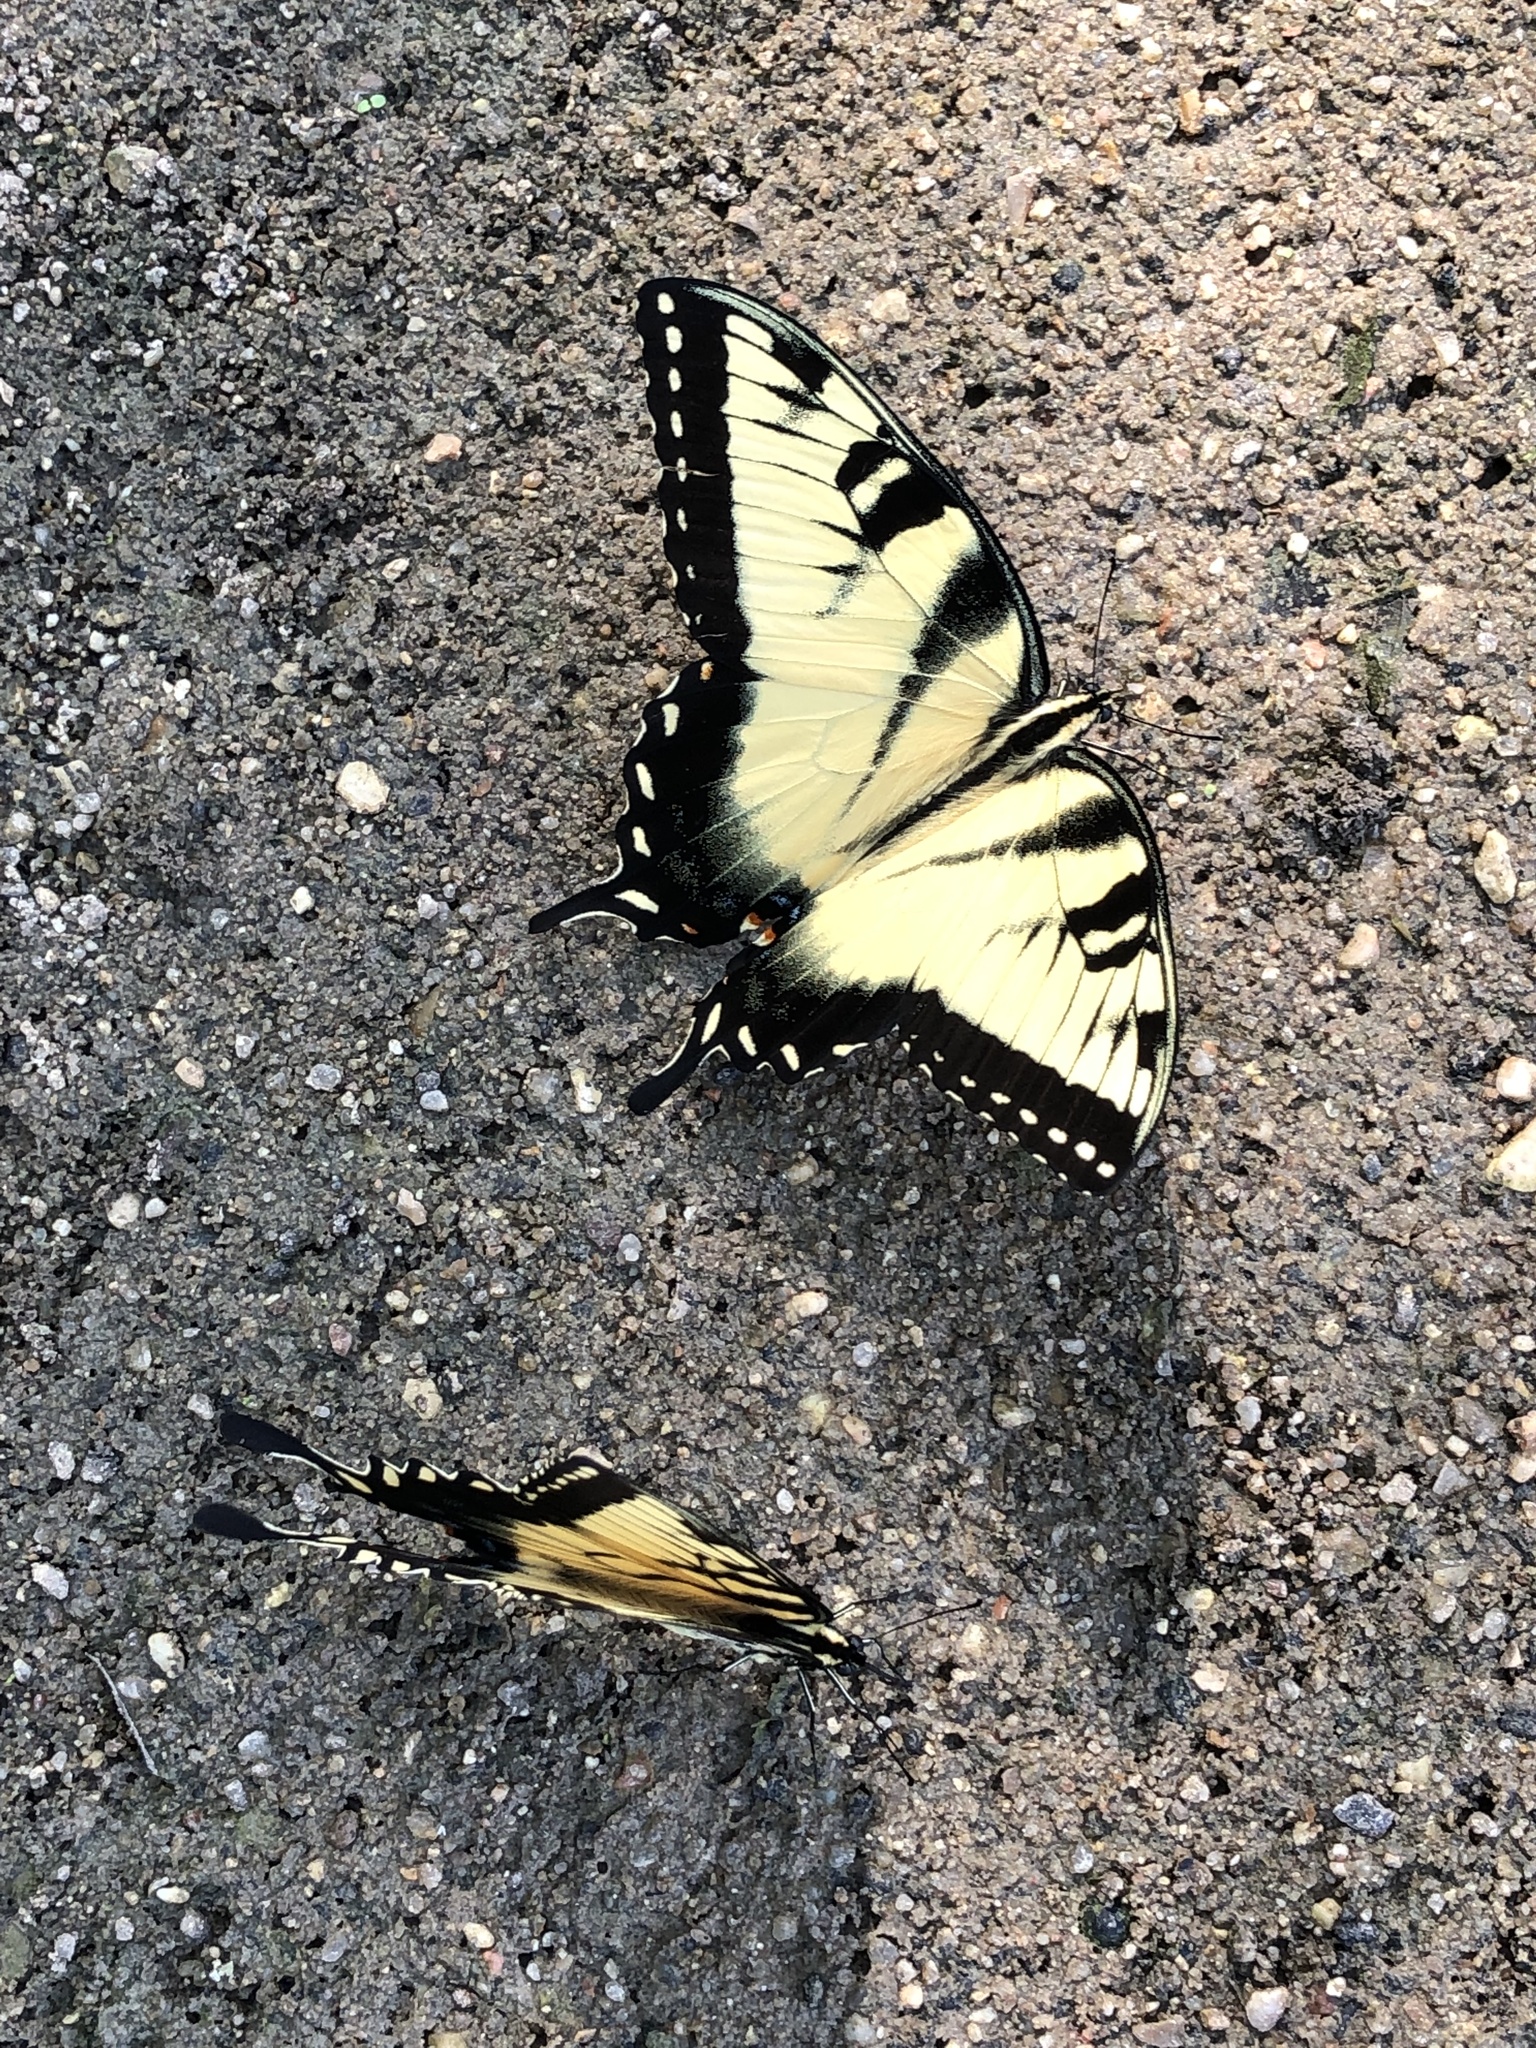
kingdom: Animalia
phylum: Arthropoda
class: Insecta
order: Lepidoptera
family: Papilionidae
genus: Papilio
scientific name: Papilio glaucus
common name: Tiger swallowtail
